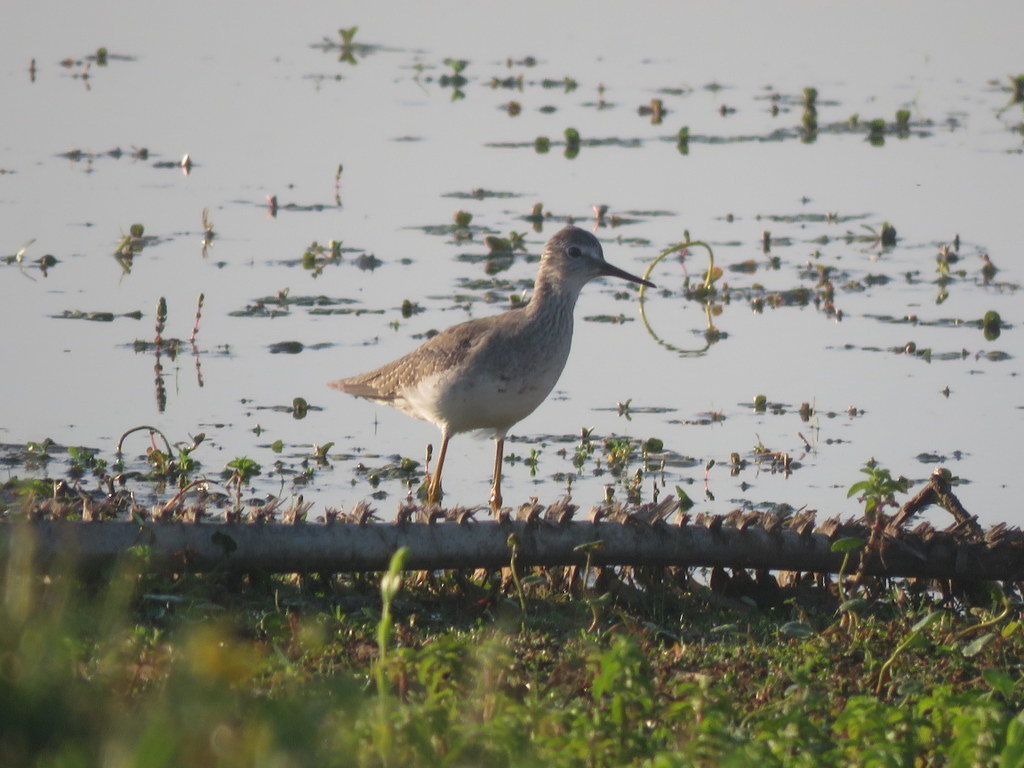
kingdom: Animalia
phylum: Chordata
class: Aves
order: Charadriiformes
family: Scolopacidae
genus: Tringa
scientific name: Tringa flavipes
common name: Lesser yellowlegs
